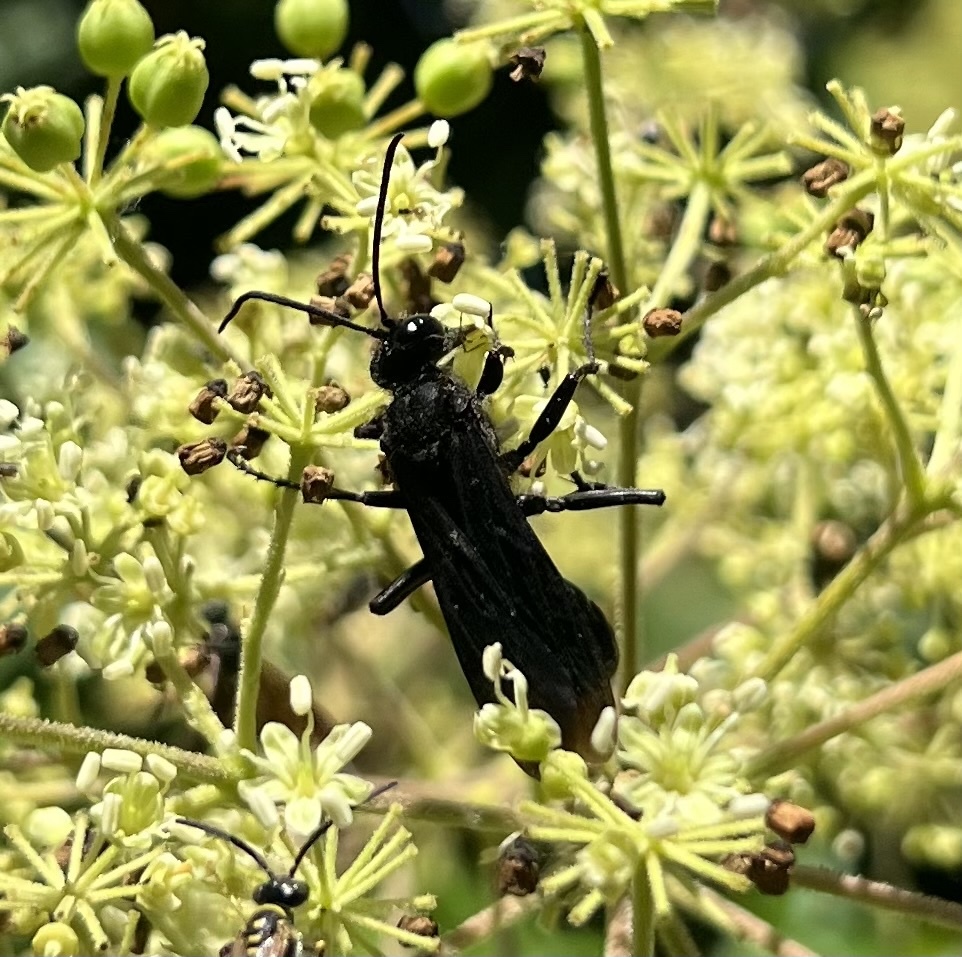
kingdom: Animalia
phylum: Arthropoda
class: Insecta
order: Hymenoptera
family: Sphecidae
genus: Sphex
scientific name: Sphex pensylvanicus
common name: Great black digger wasp
